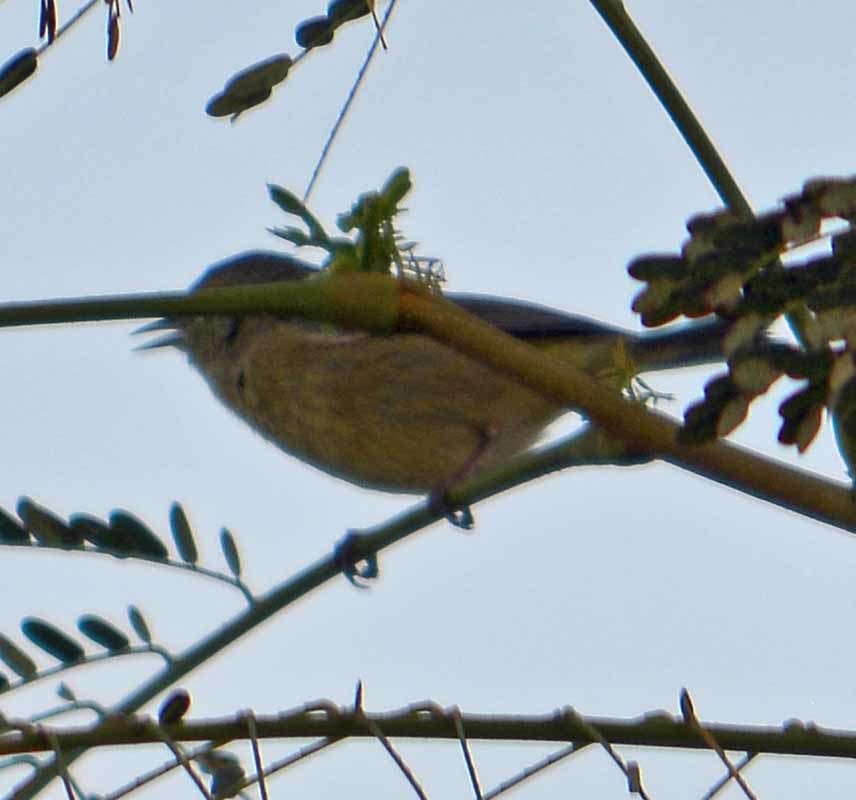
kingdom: Animalia
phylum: Chordata
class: Aves
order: Passeriformes
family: Parulidae
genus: Leiothlypis
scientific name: Leiothlypis celata
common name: Orange-crowned warbler
